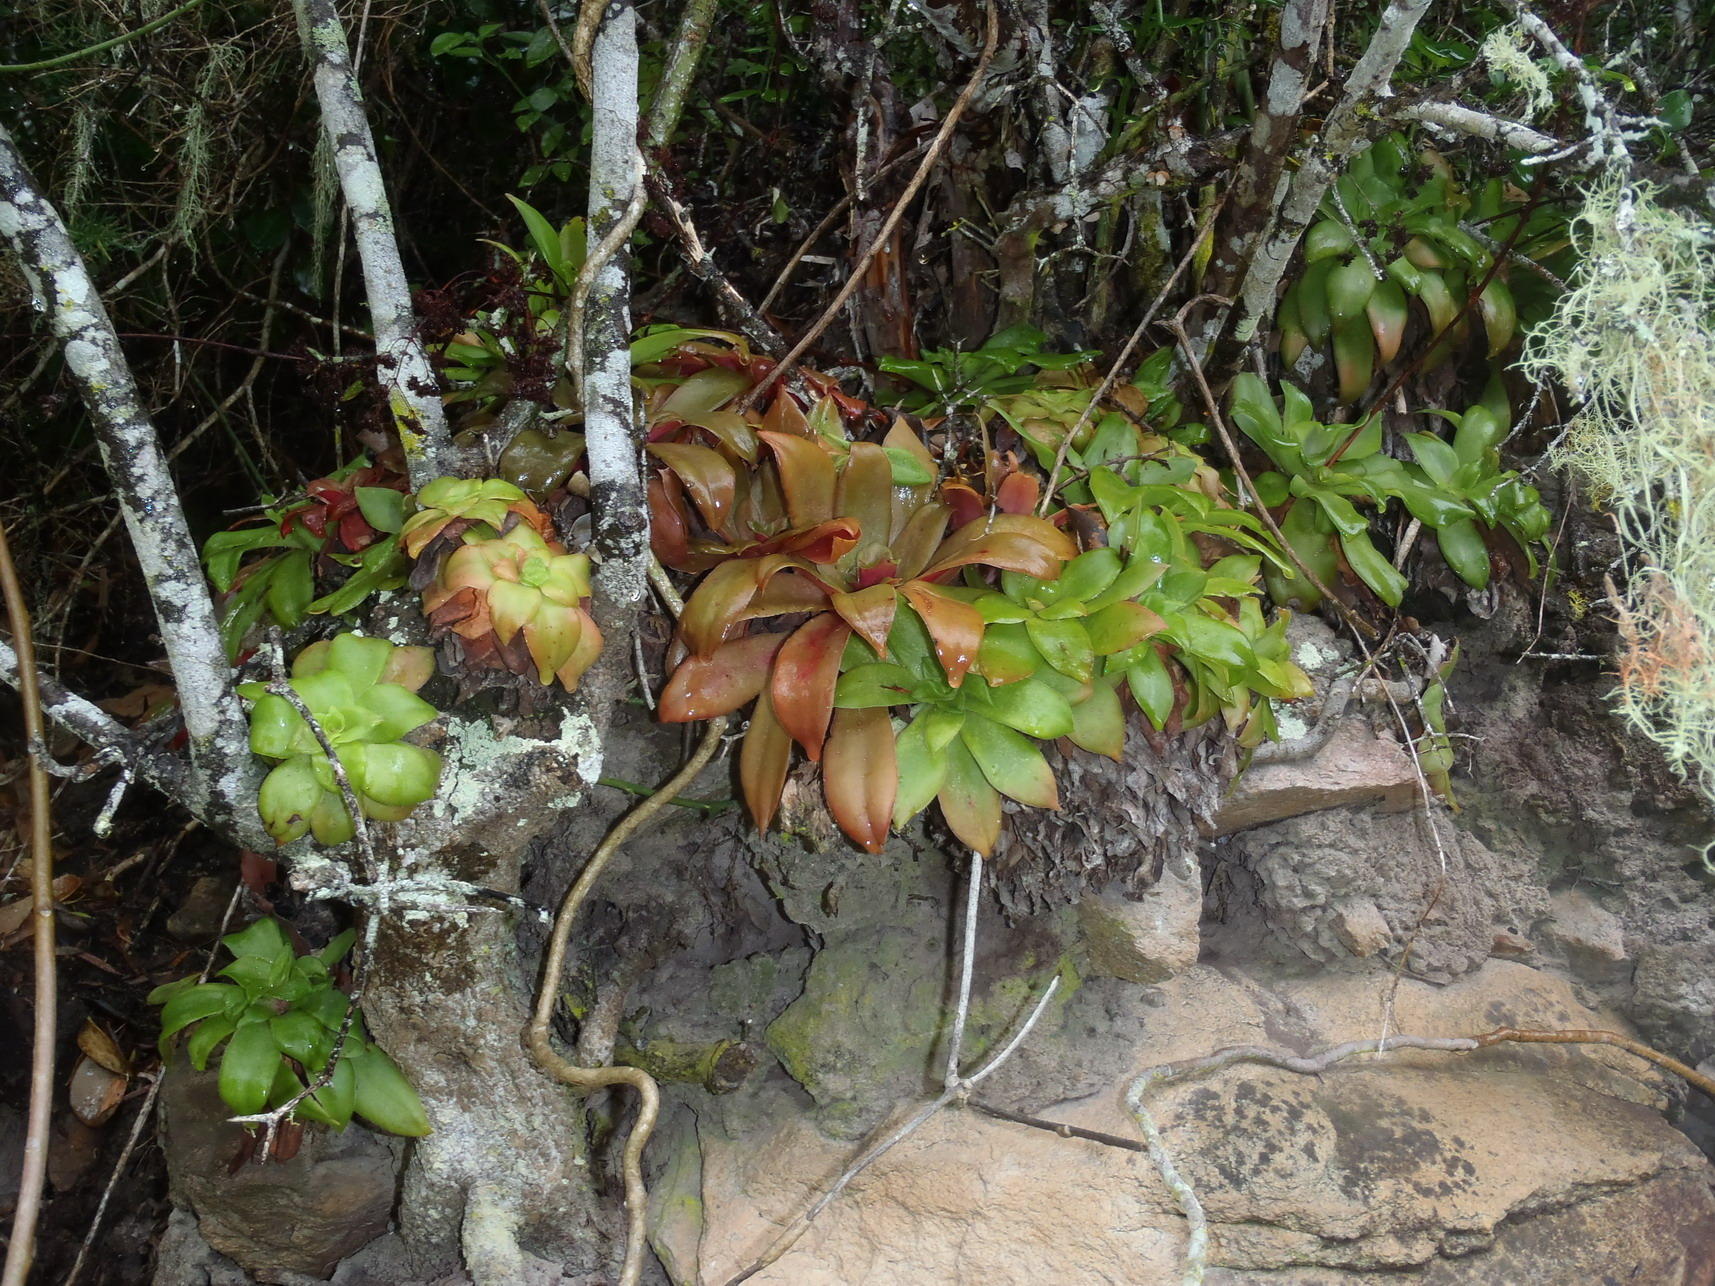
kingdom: Plantae
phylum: Tracheophyta
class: Magnoliopsida
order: Saxifragales
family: Crassulaceae
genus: Crassula
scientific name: Crassula orbicularis
